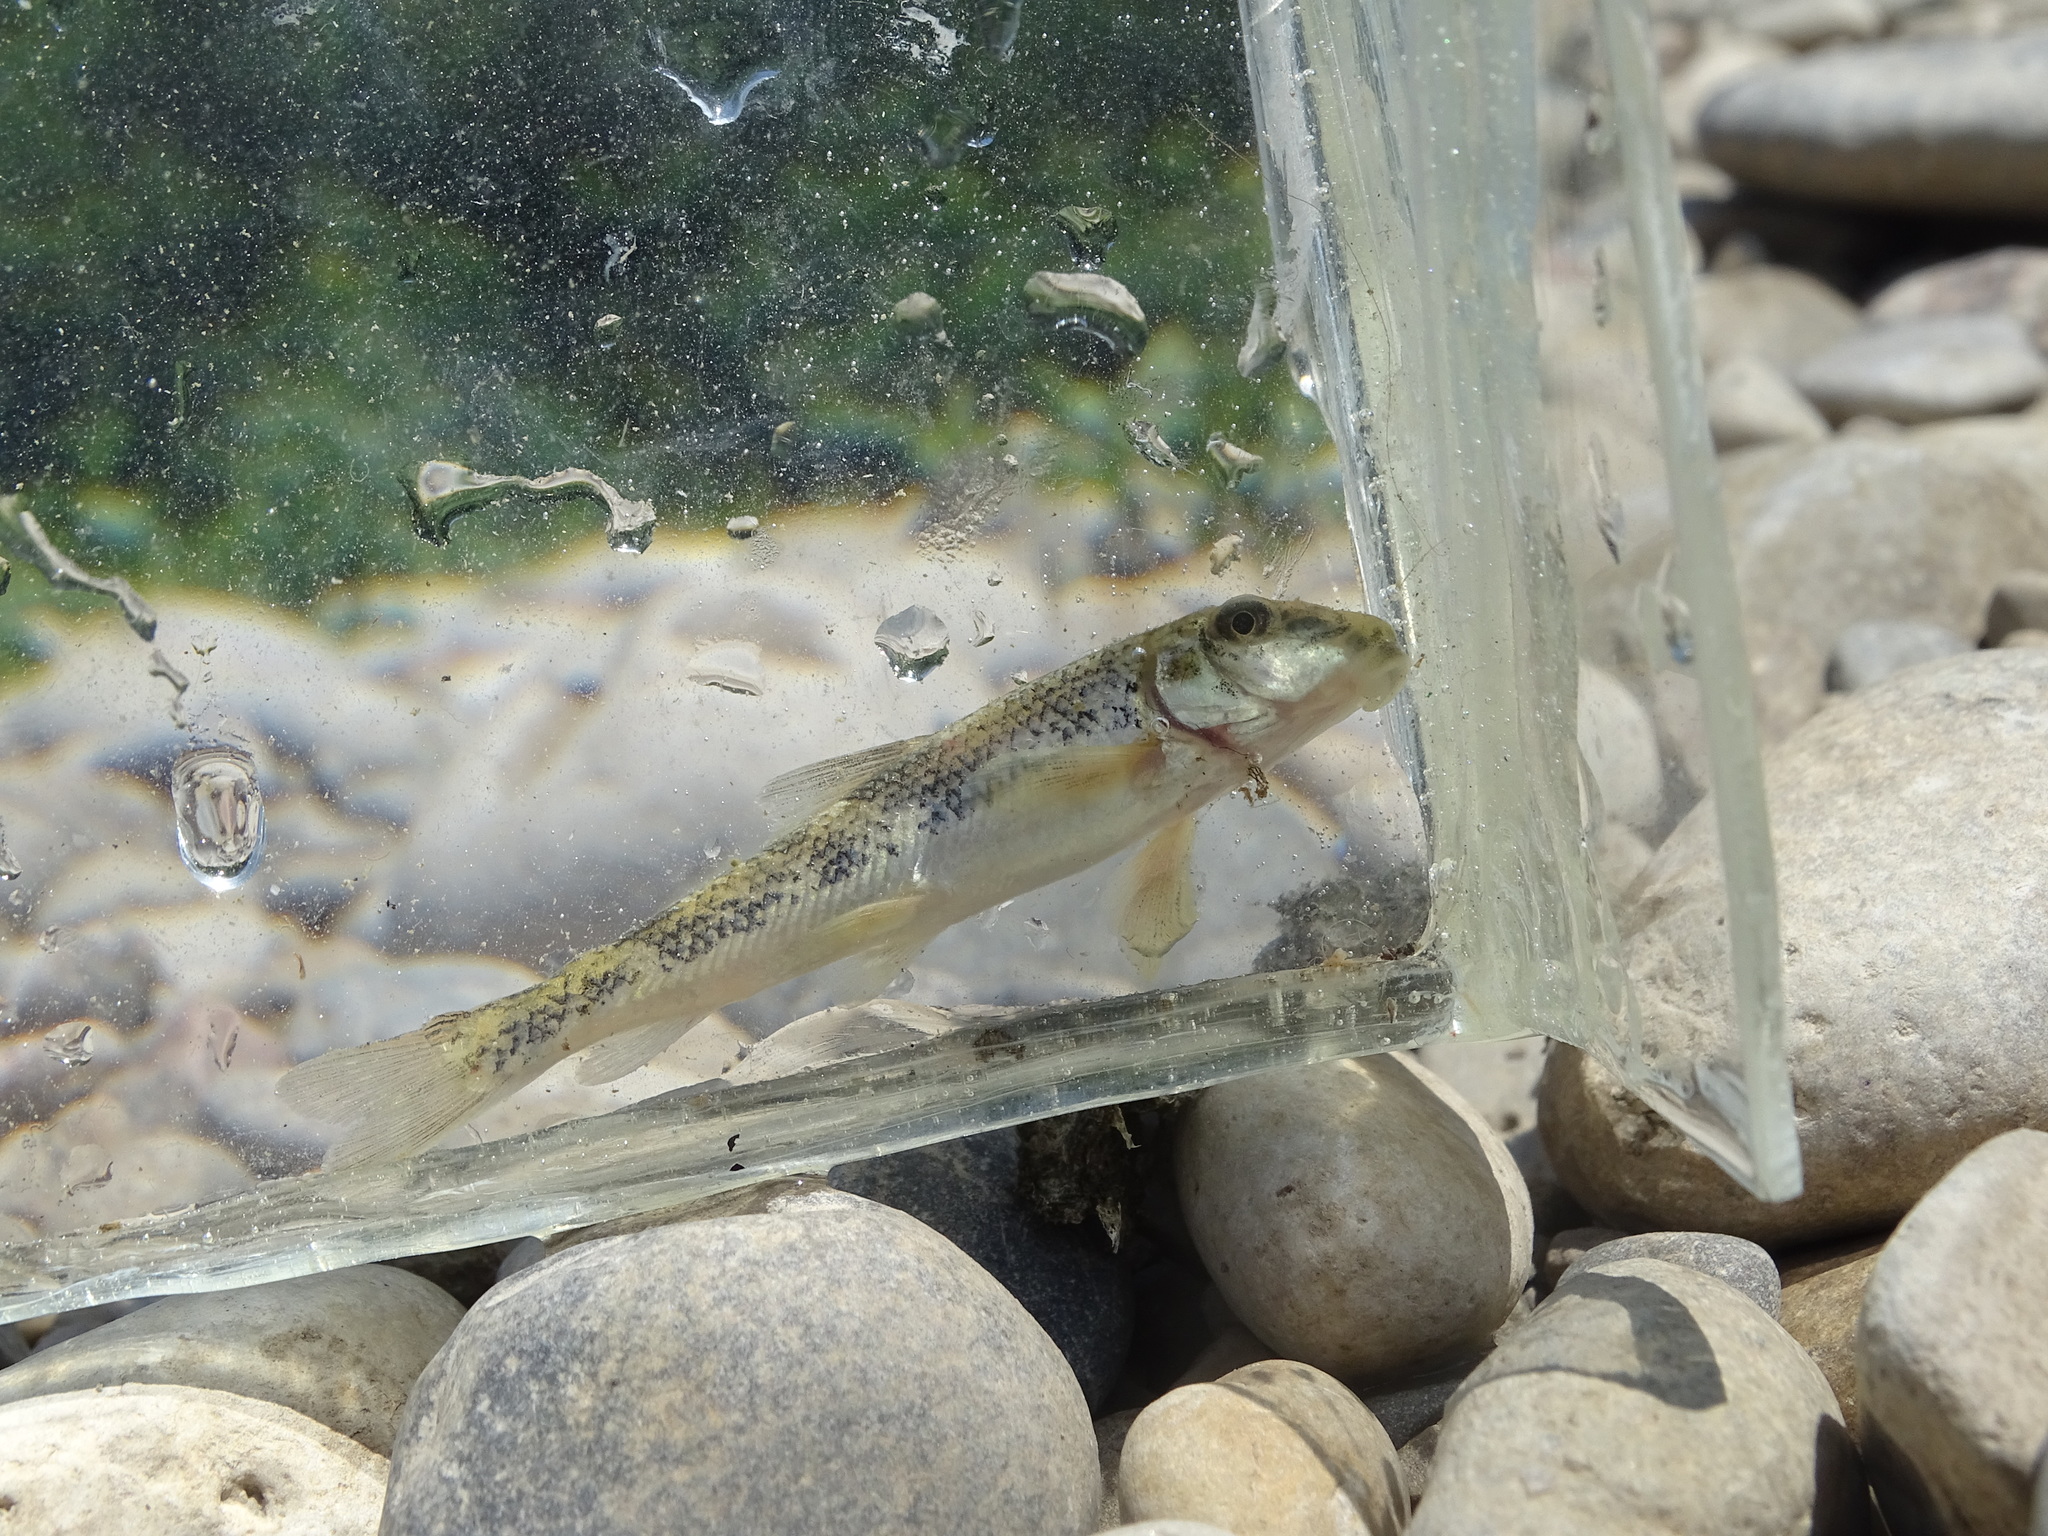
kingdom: Animalia
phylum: Chordata
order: Cypriniformes
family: Catostomidae
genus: Hypentelium
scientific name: Hypentelium nigricans
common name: Northern hog sucker
